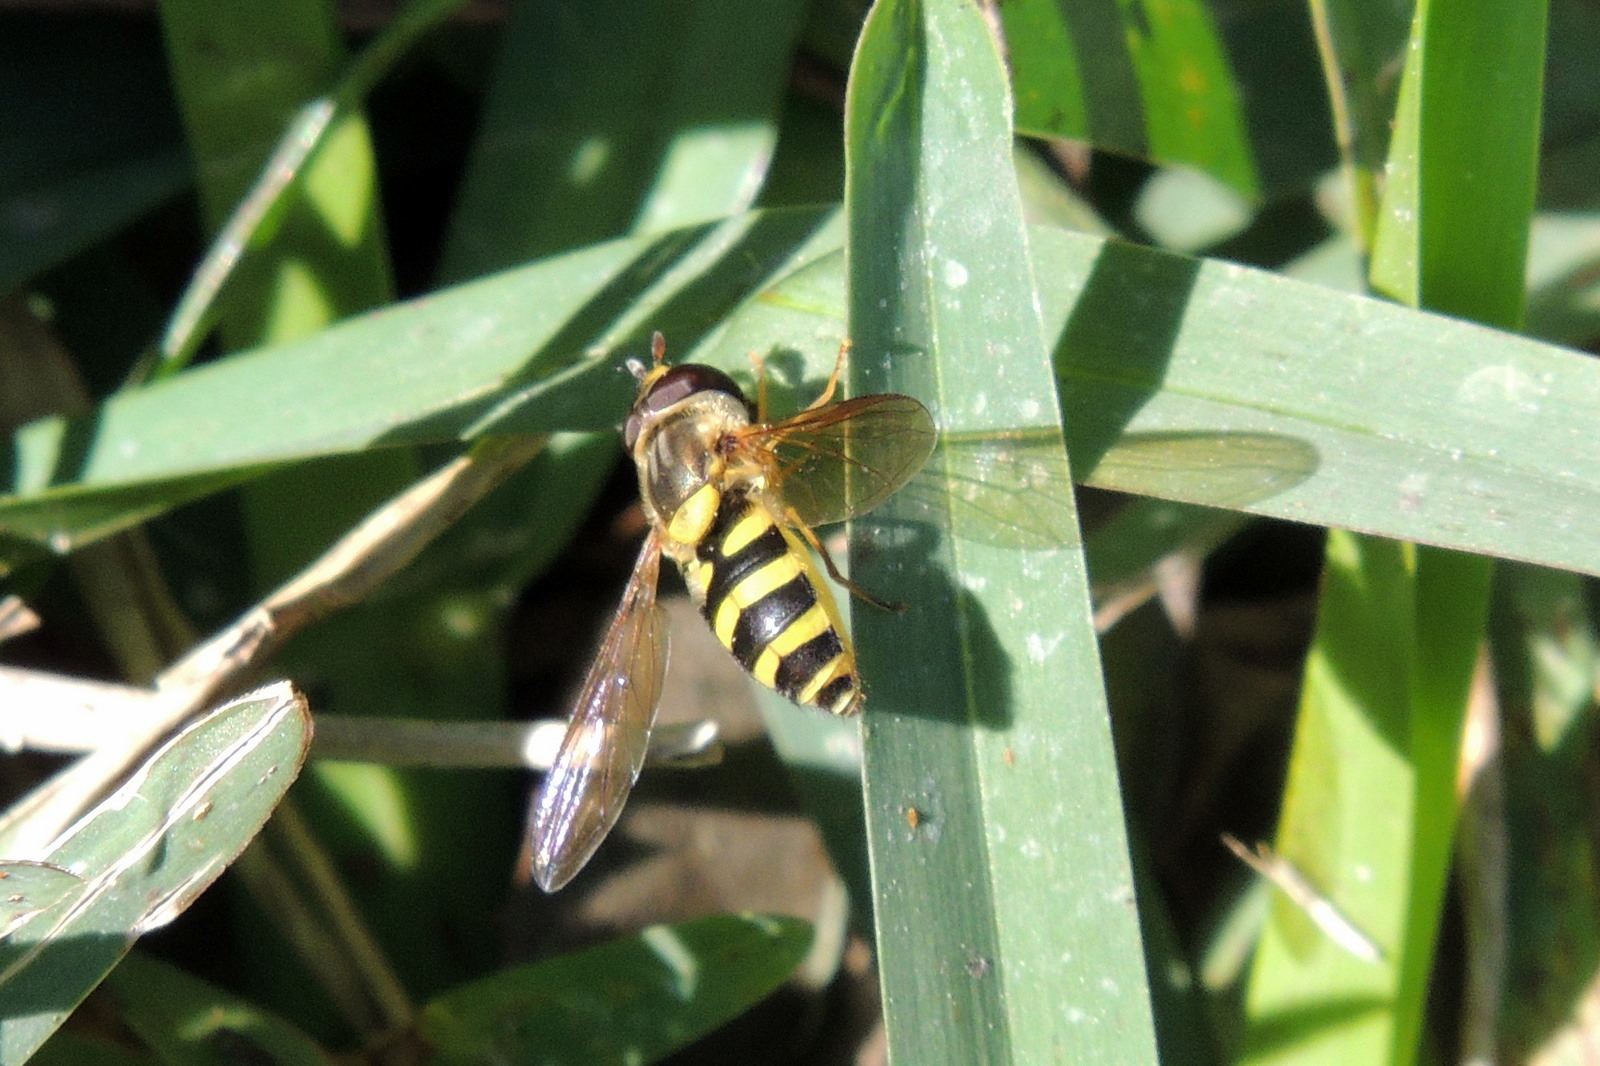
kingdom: Animalia
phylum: Arthropoda
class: Insecta
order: Diptera
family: Syrphidae
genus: Syrphus
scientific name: Syrphus knabi
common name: Eastern flower fly
